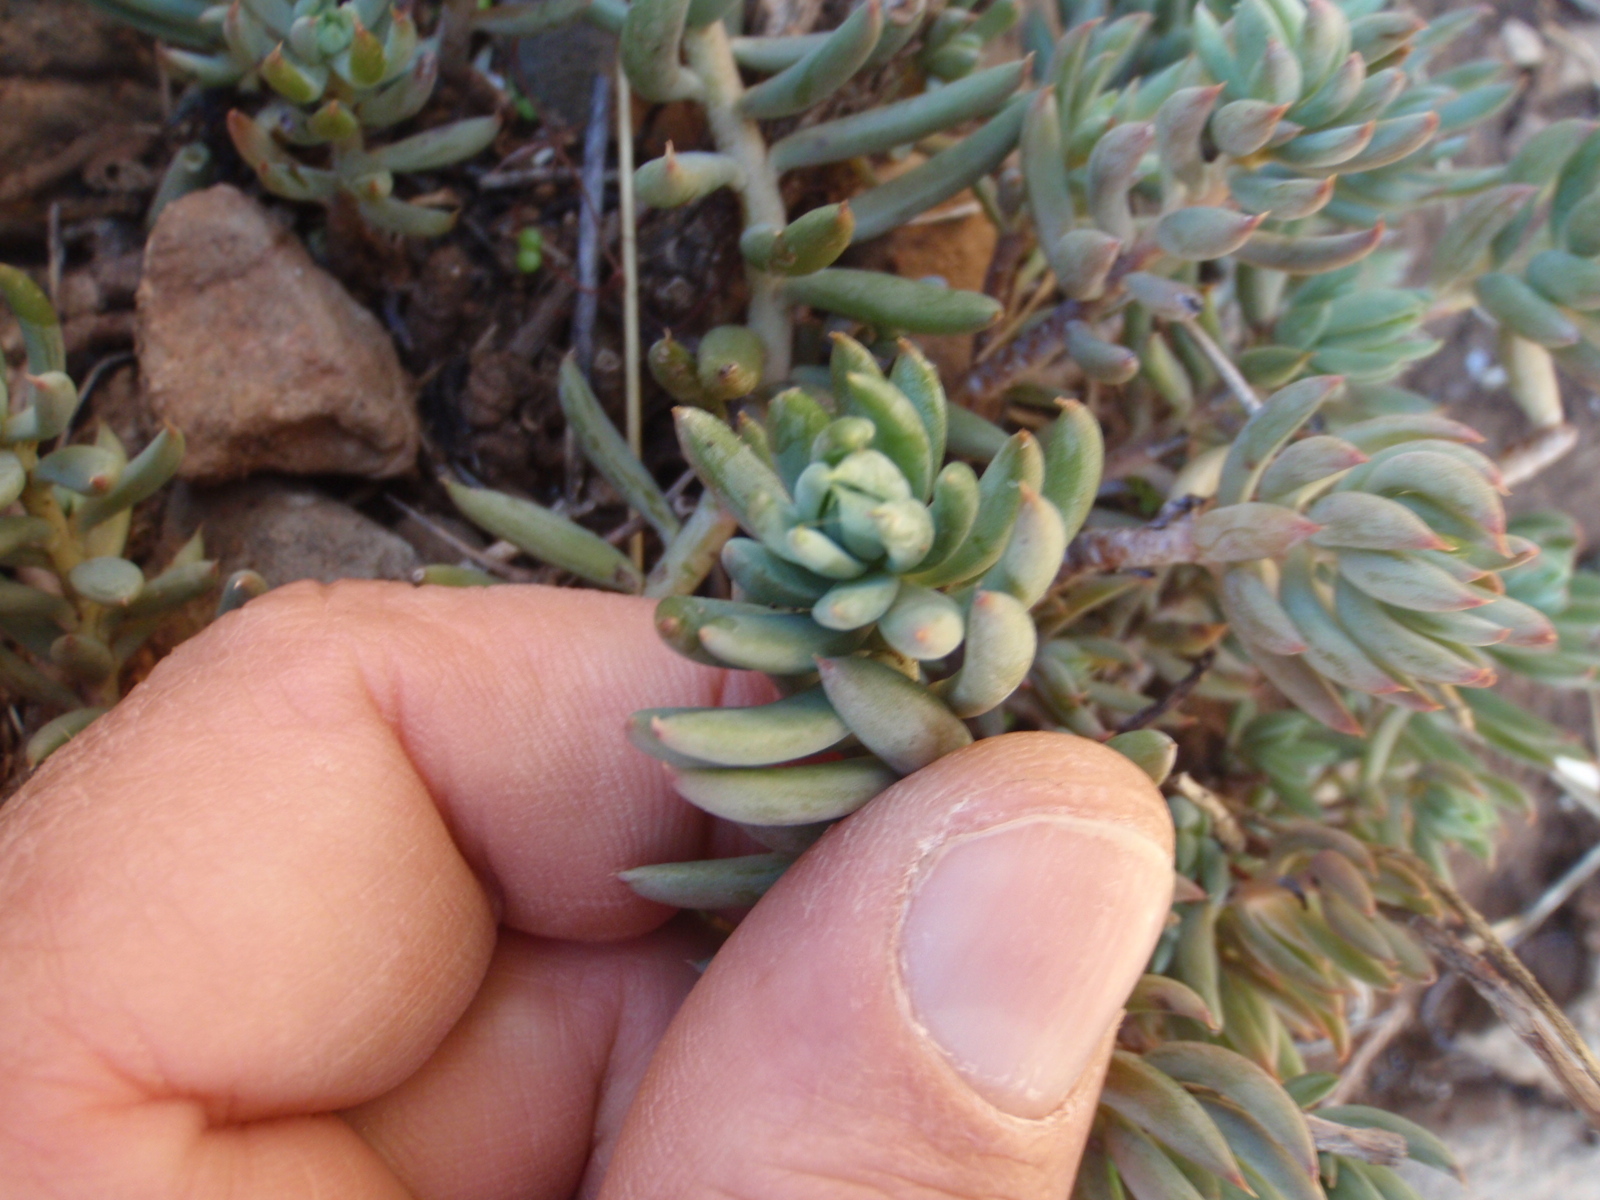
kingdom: Plantae
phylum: Tracheophyta
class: Magnoliopsida
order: Saxifragales
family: Crassulaceae
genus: Petrosedum
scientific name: Petrosedum sediforme
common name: Pale stonecrop
